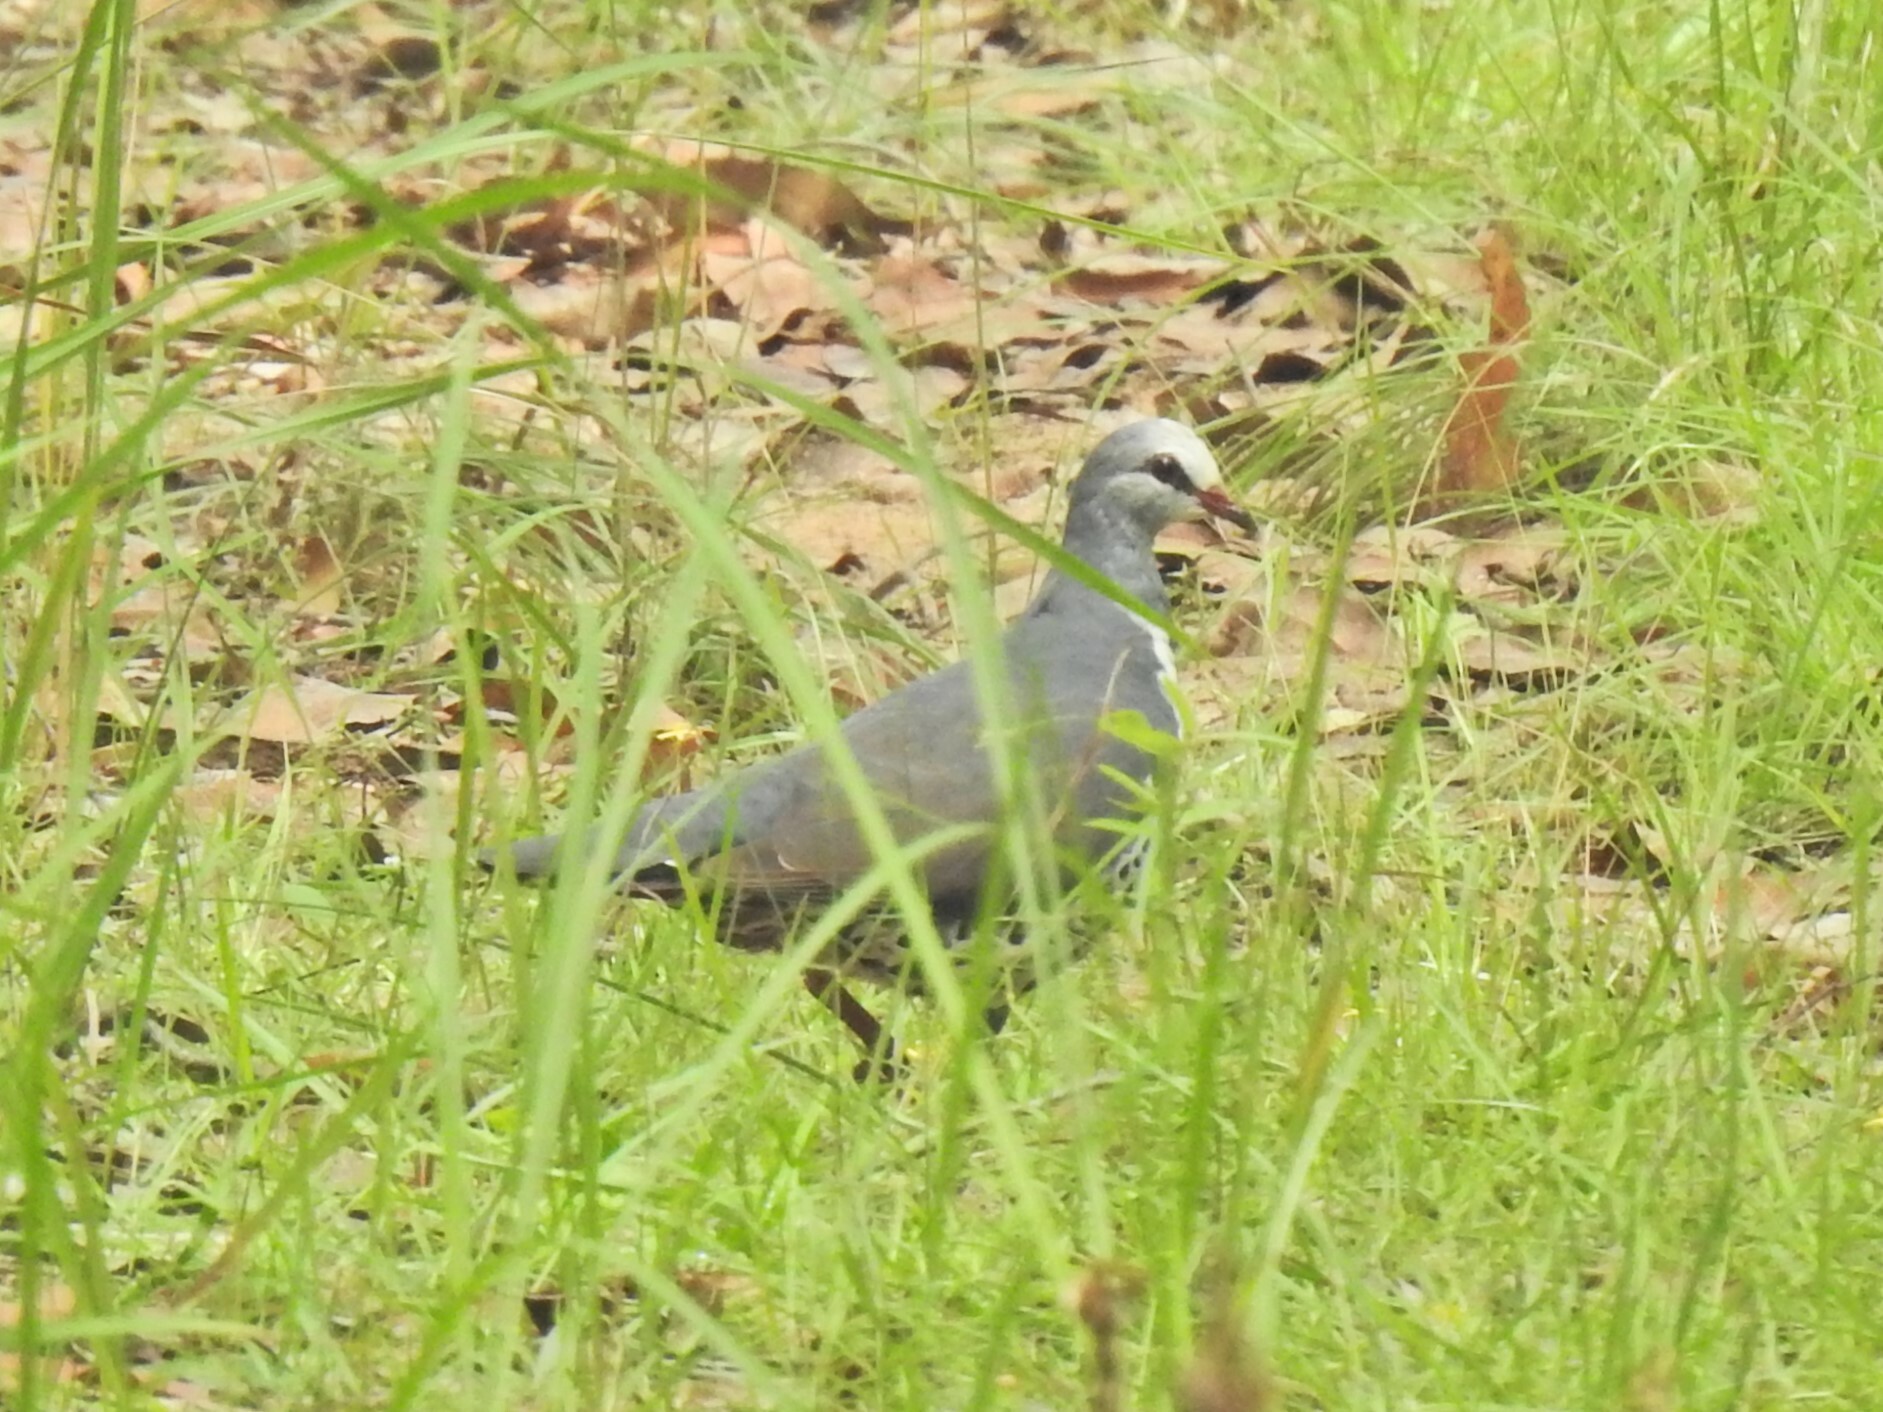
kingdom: Animalia
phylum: Chordata
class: Aves
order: Columbiformes
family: Columbidae
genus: Leucosarcia
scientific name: Leucosarcia melanoleuca
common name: Wonga pigeon
